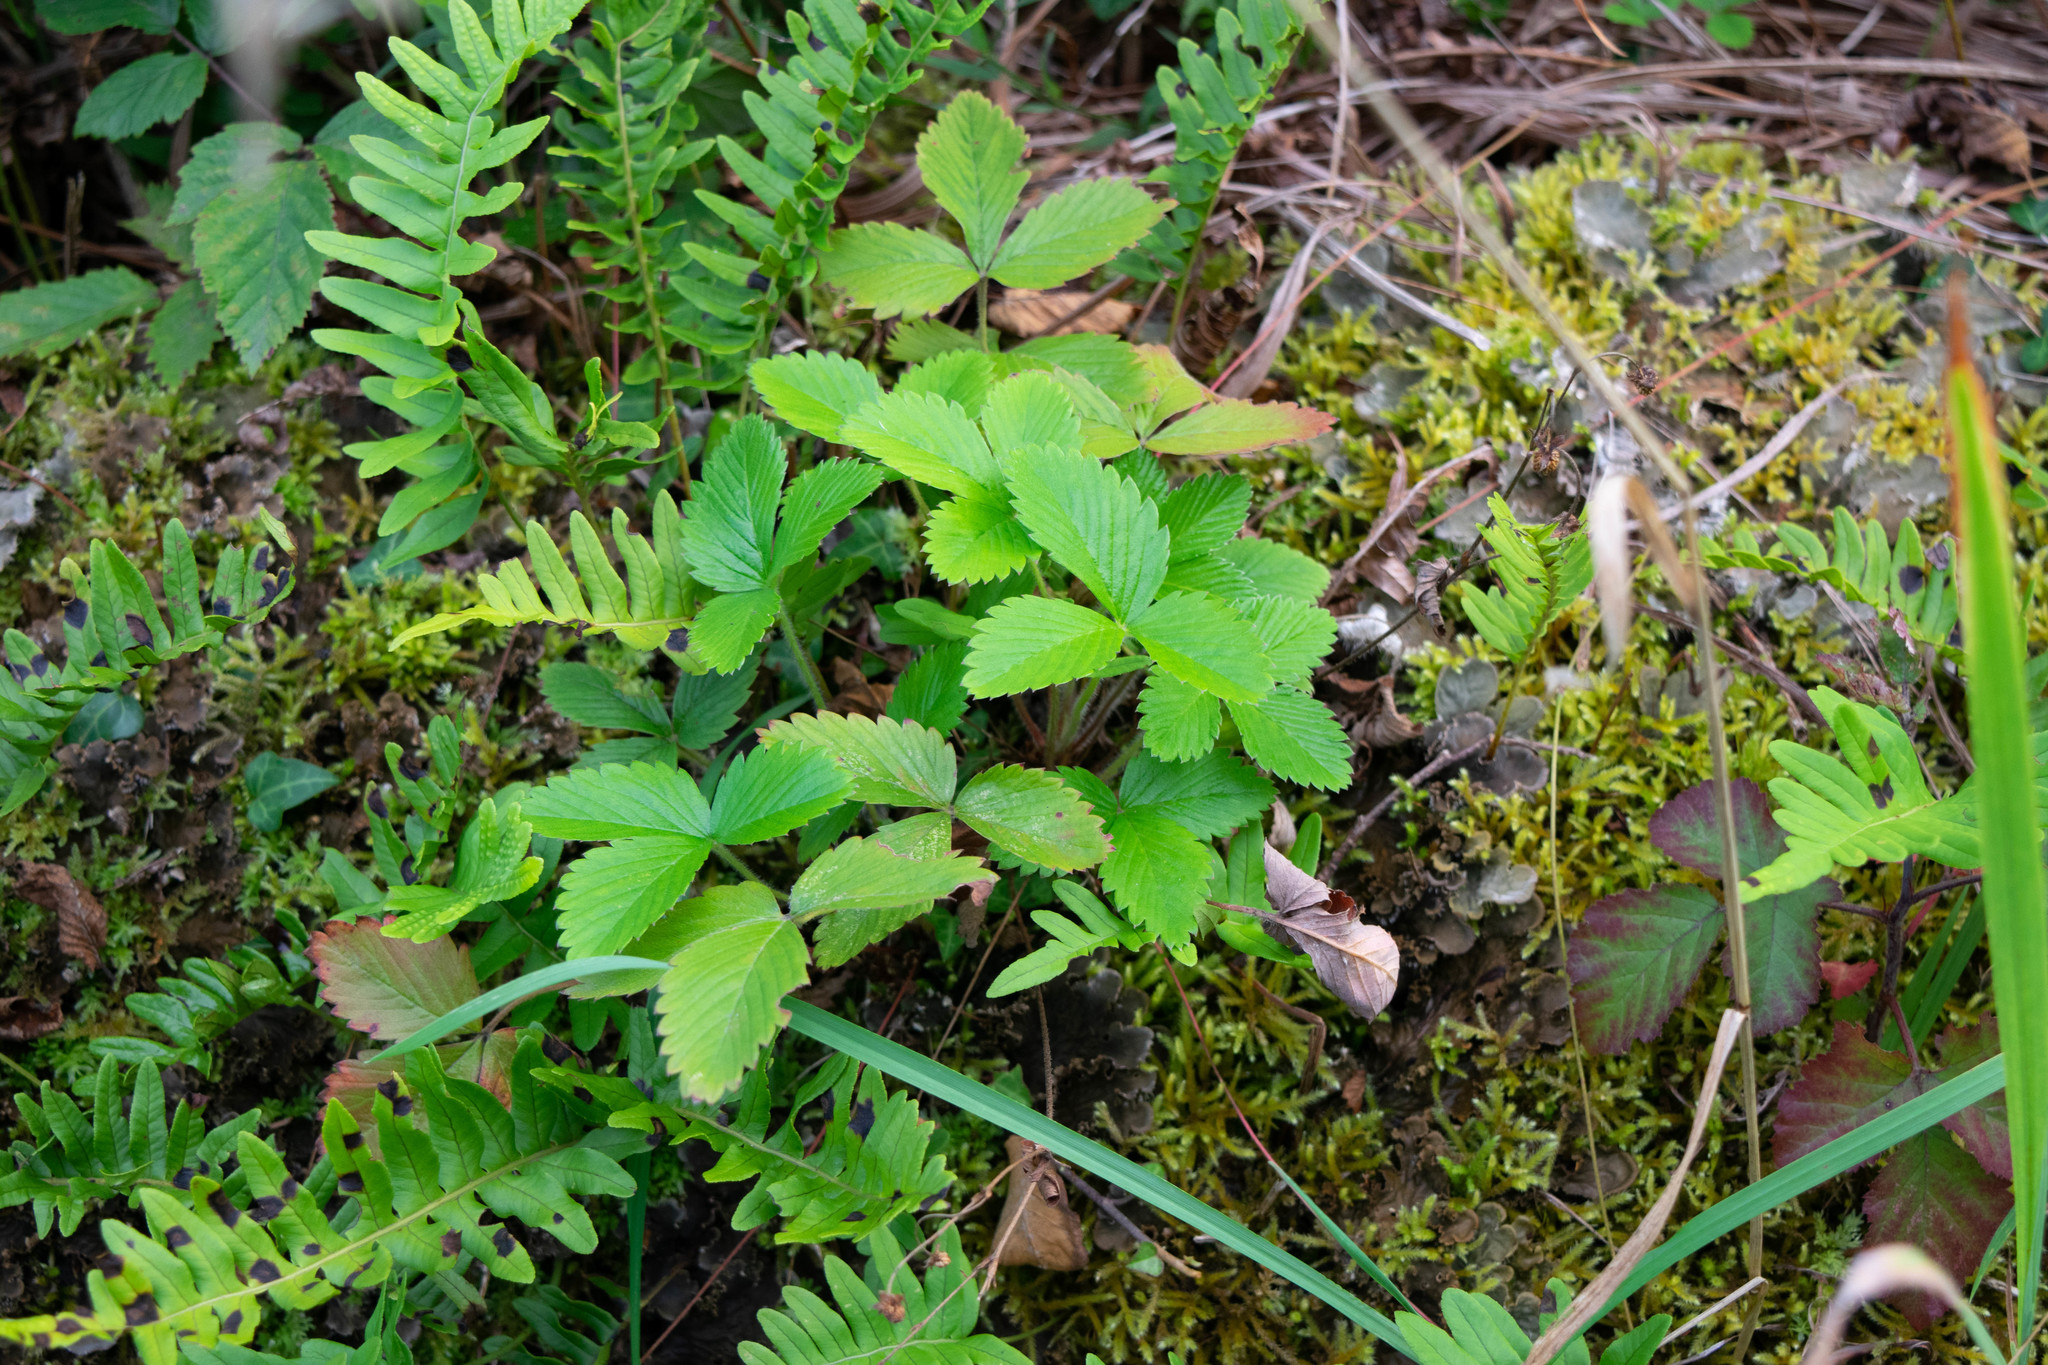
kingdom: Plantae
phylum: Tracheophyta
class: Magnoliopsida
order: Rosales
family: Rosaceae
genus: Fragaria
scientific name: Fragaria vesca
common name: Wild strawberry
